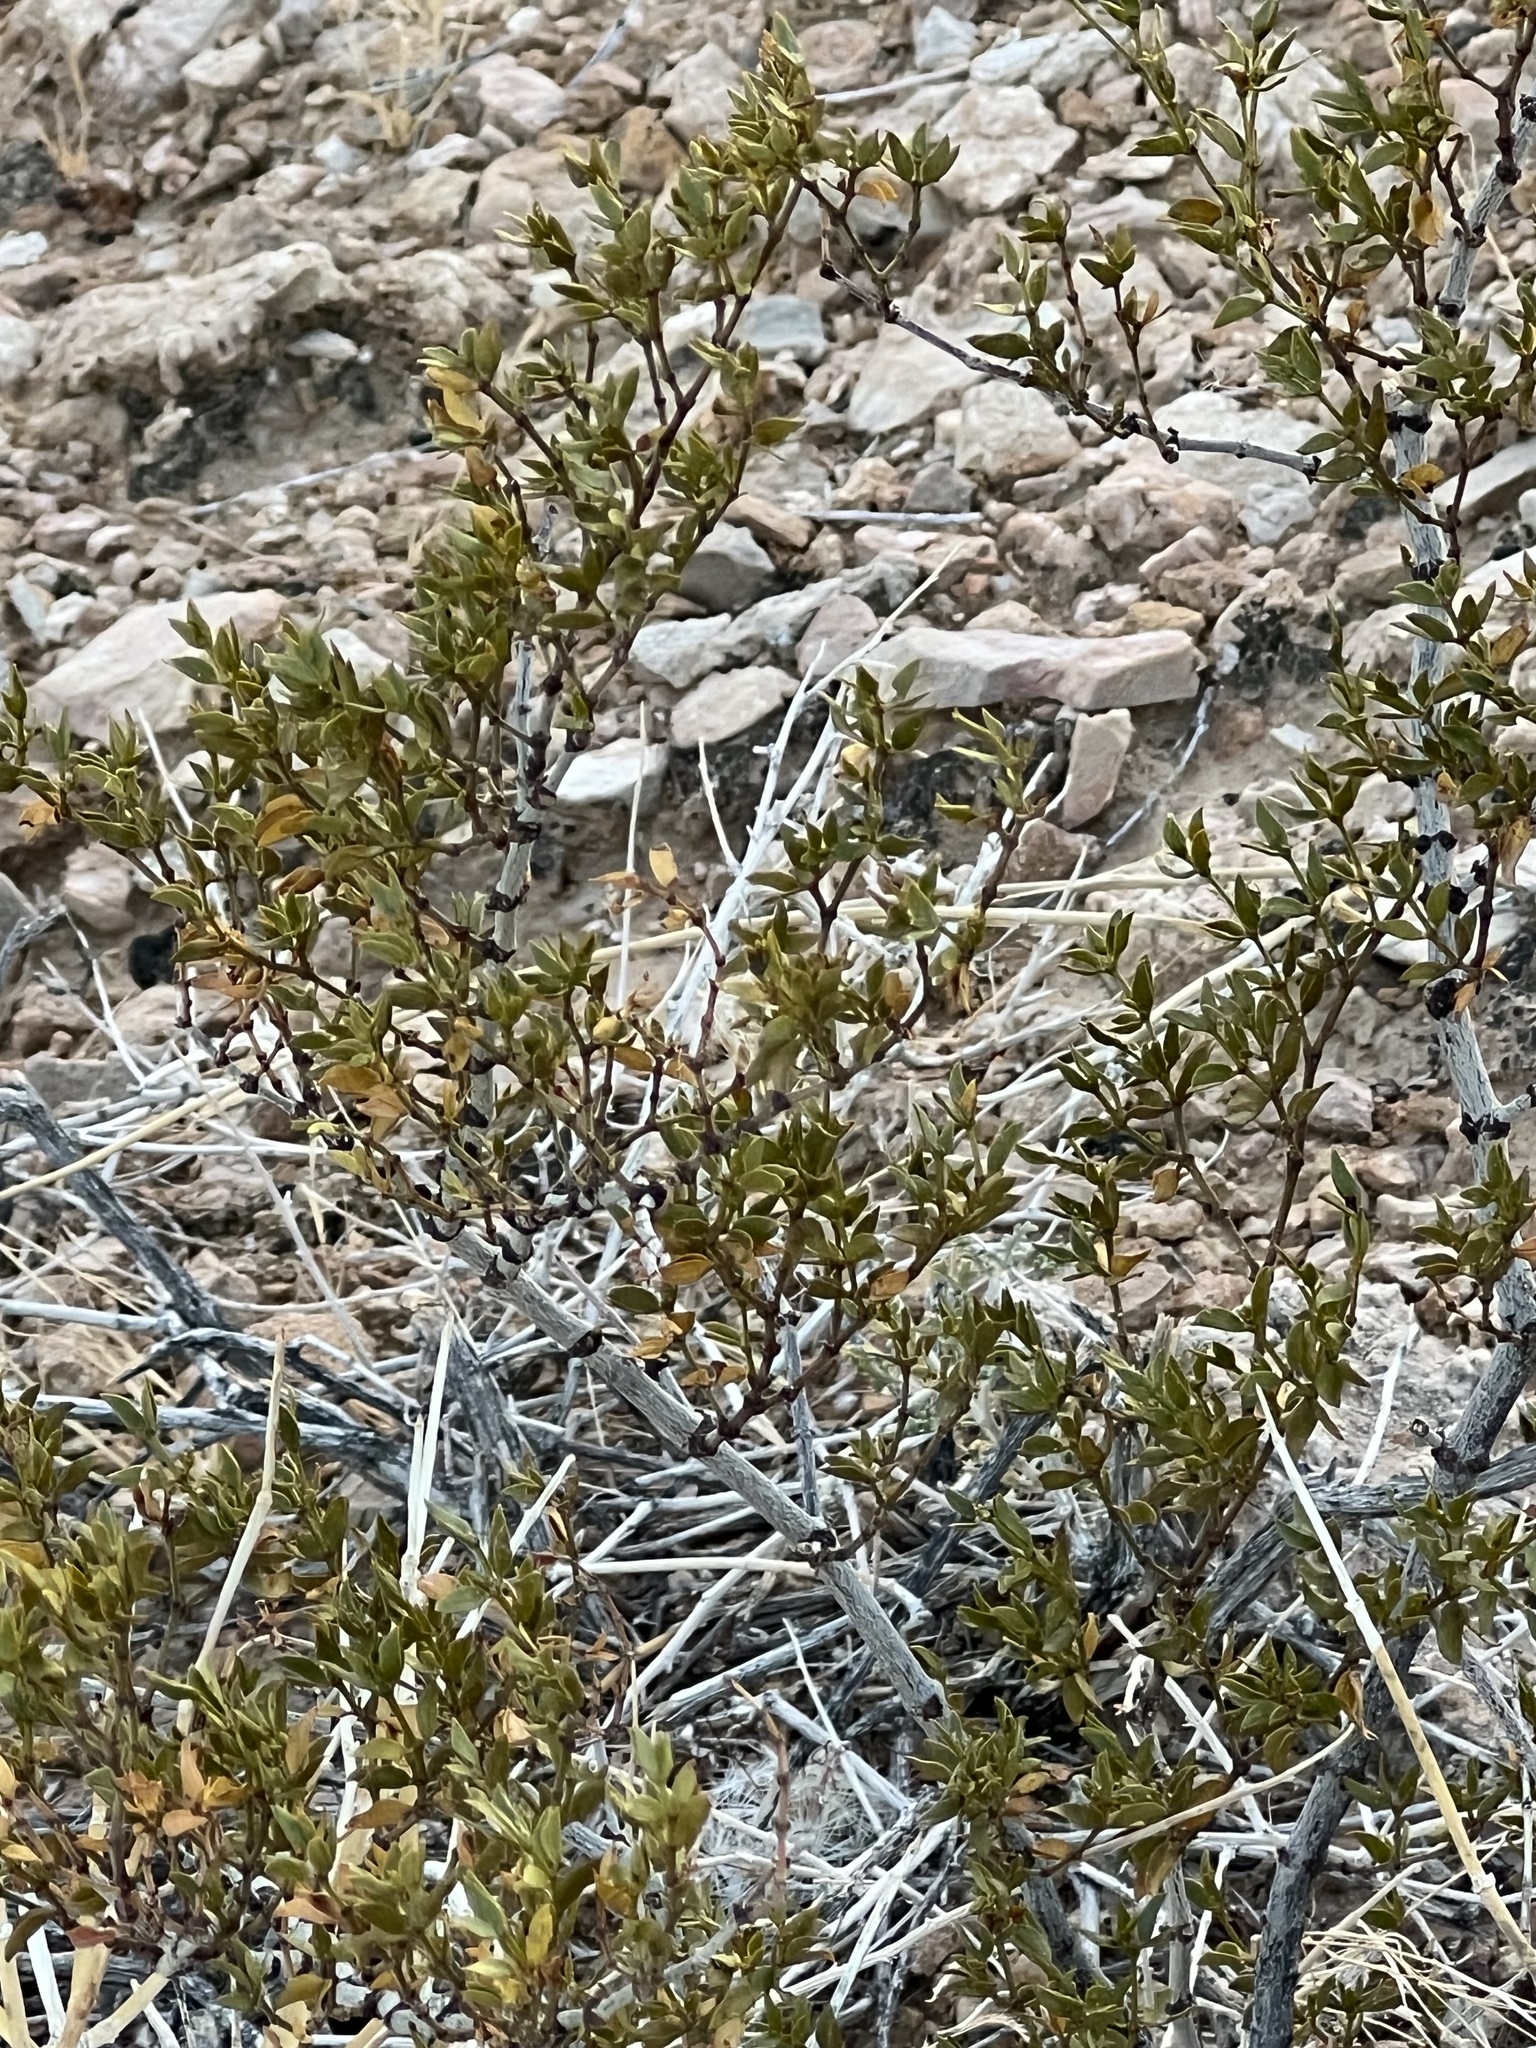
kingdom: Plantae
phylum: Tracheophyta
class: Magnoliopsida
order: Zygophyllales
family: Zygophyllaceae
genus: Larrea
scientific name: Larrea tridentata
